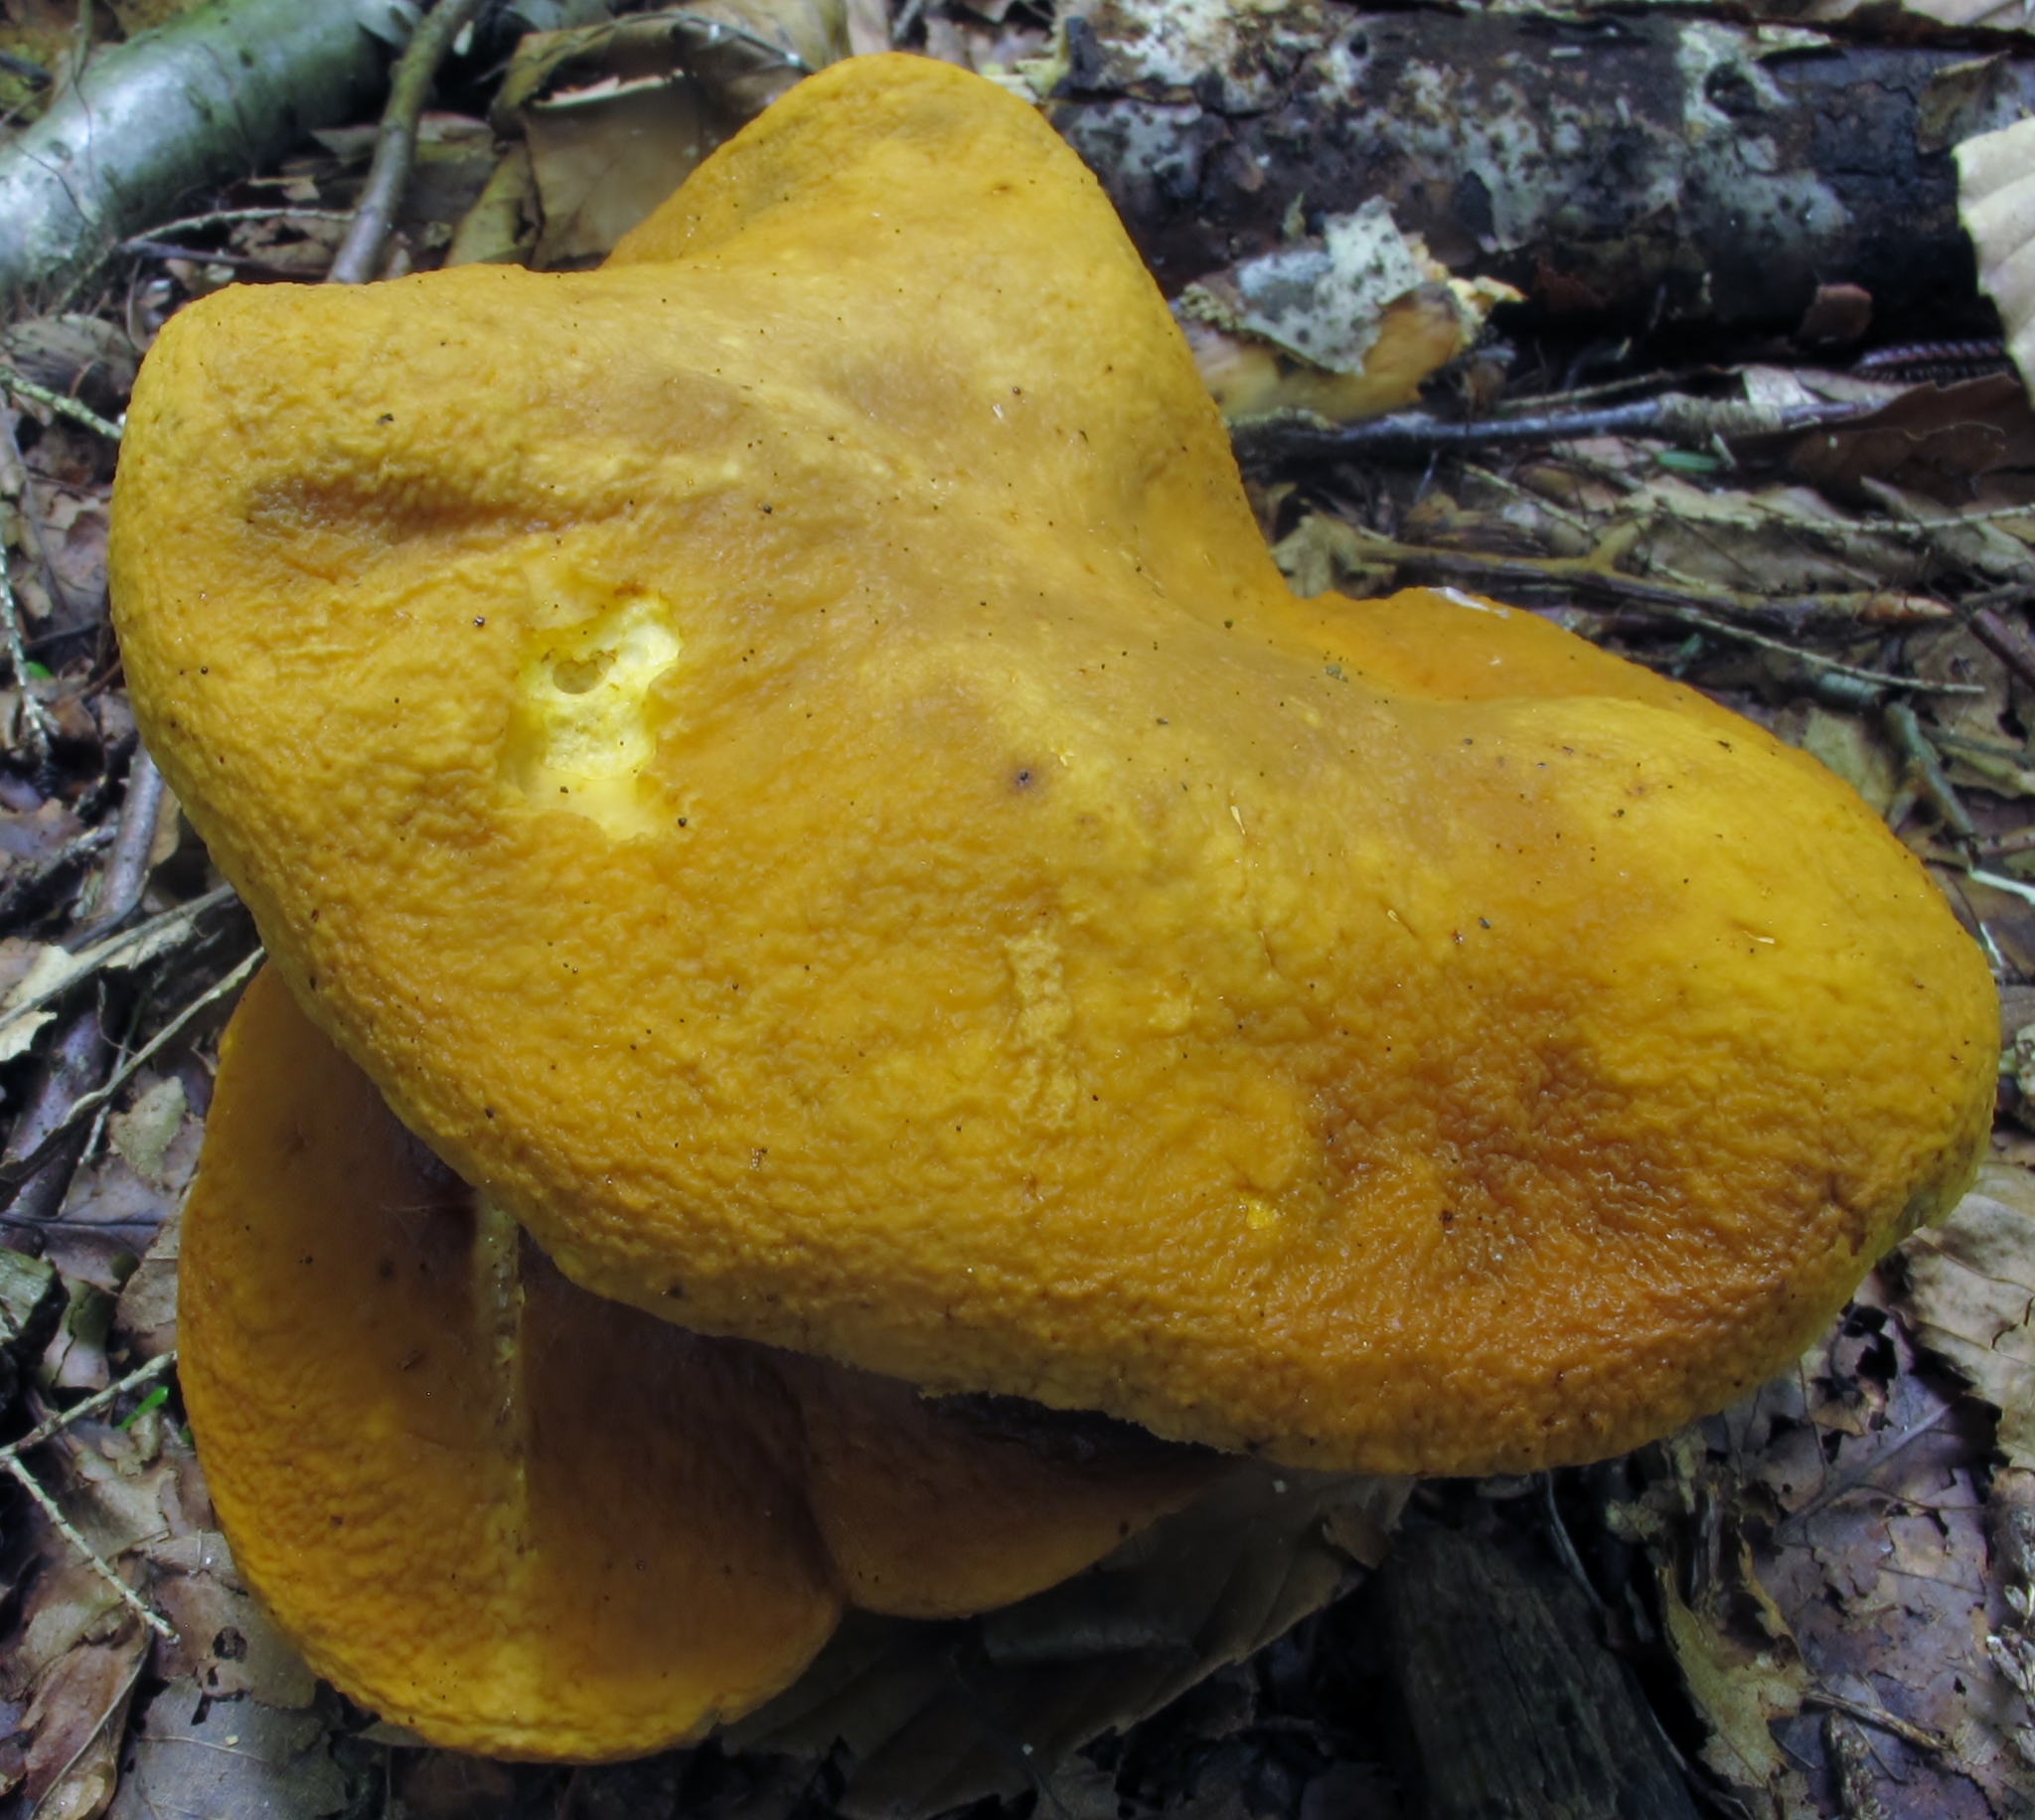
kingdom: Fungi
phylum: Basidiomycota
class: Agaricomycetes
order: Boletales
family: Boletaceae
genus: Xanthoconium
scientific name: Xanthoconium affine
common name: Spotted bolete
